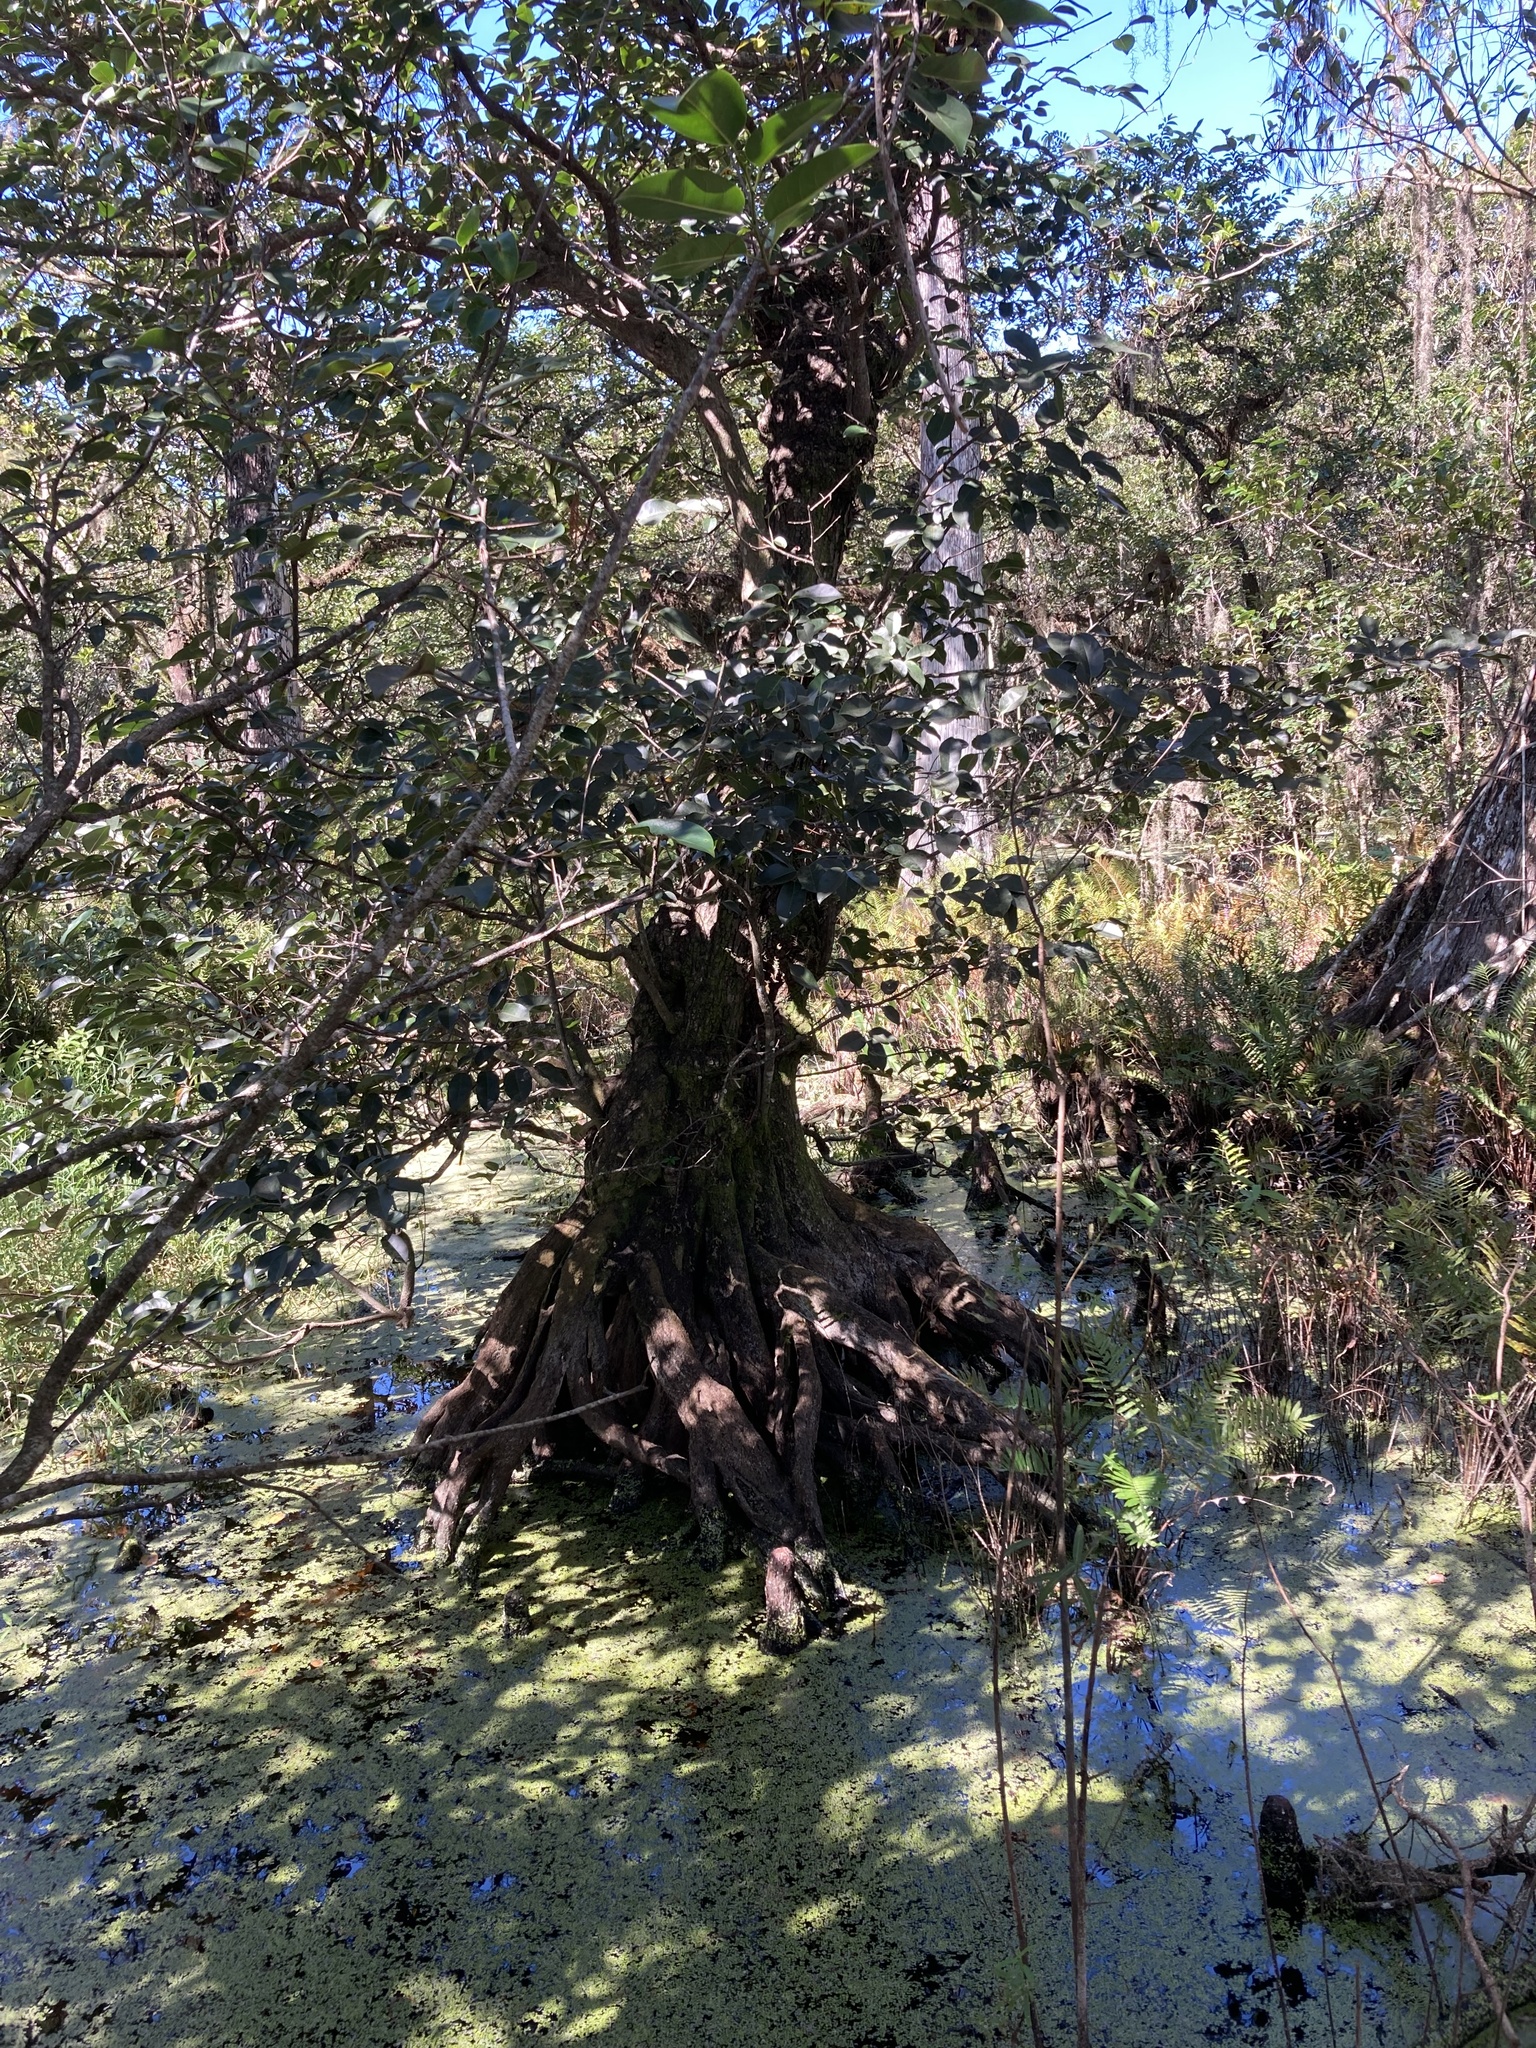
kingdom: Plantae
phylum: Tracheophyta
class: Magnoliopsida
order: Magnoliales
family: Annonaceae
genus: Annona
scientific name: Annona glabra
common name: Monkey apple
